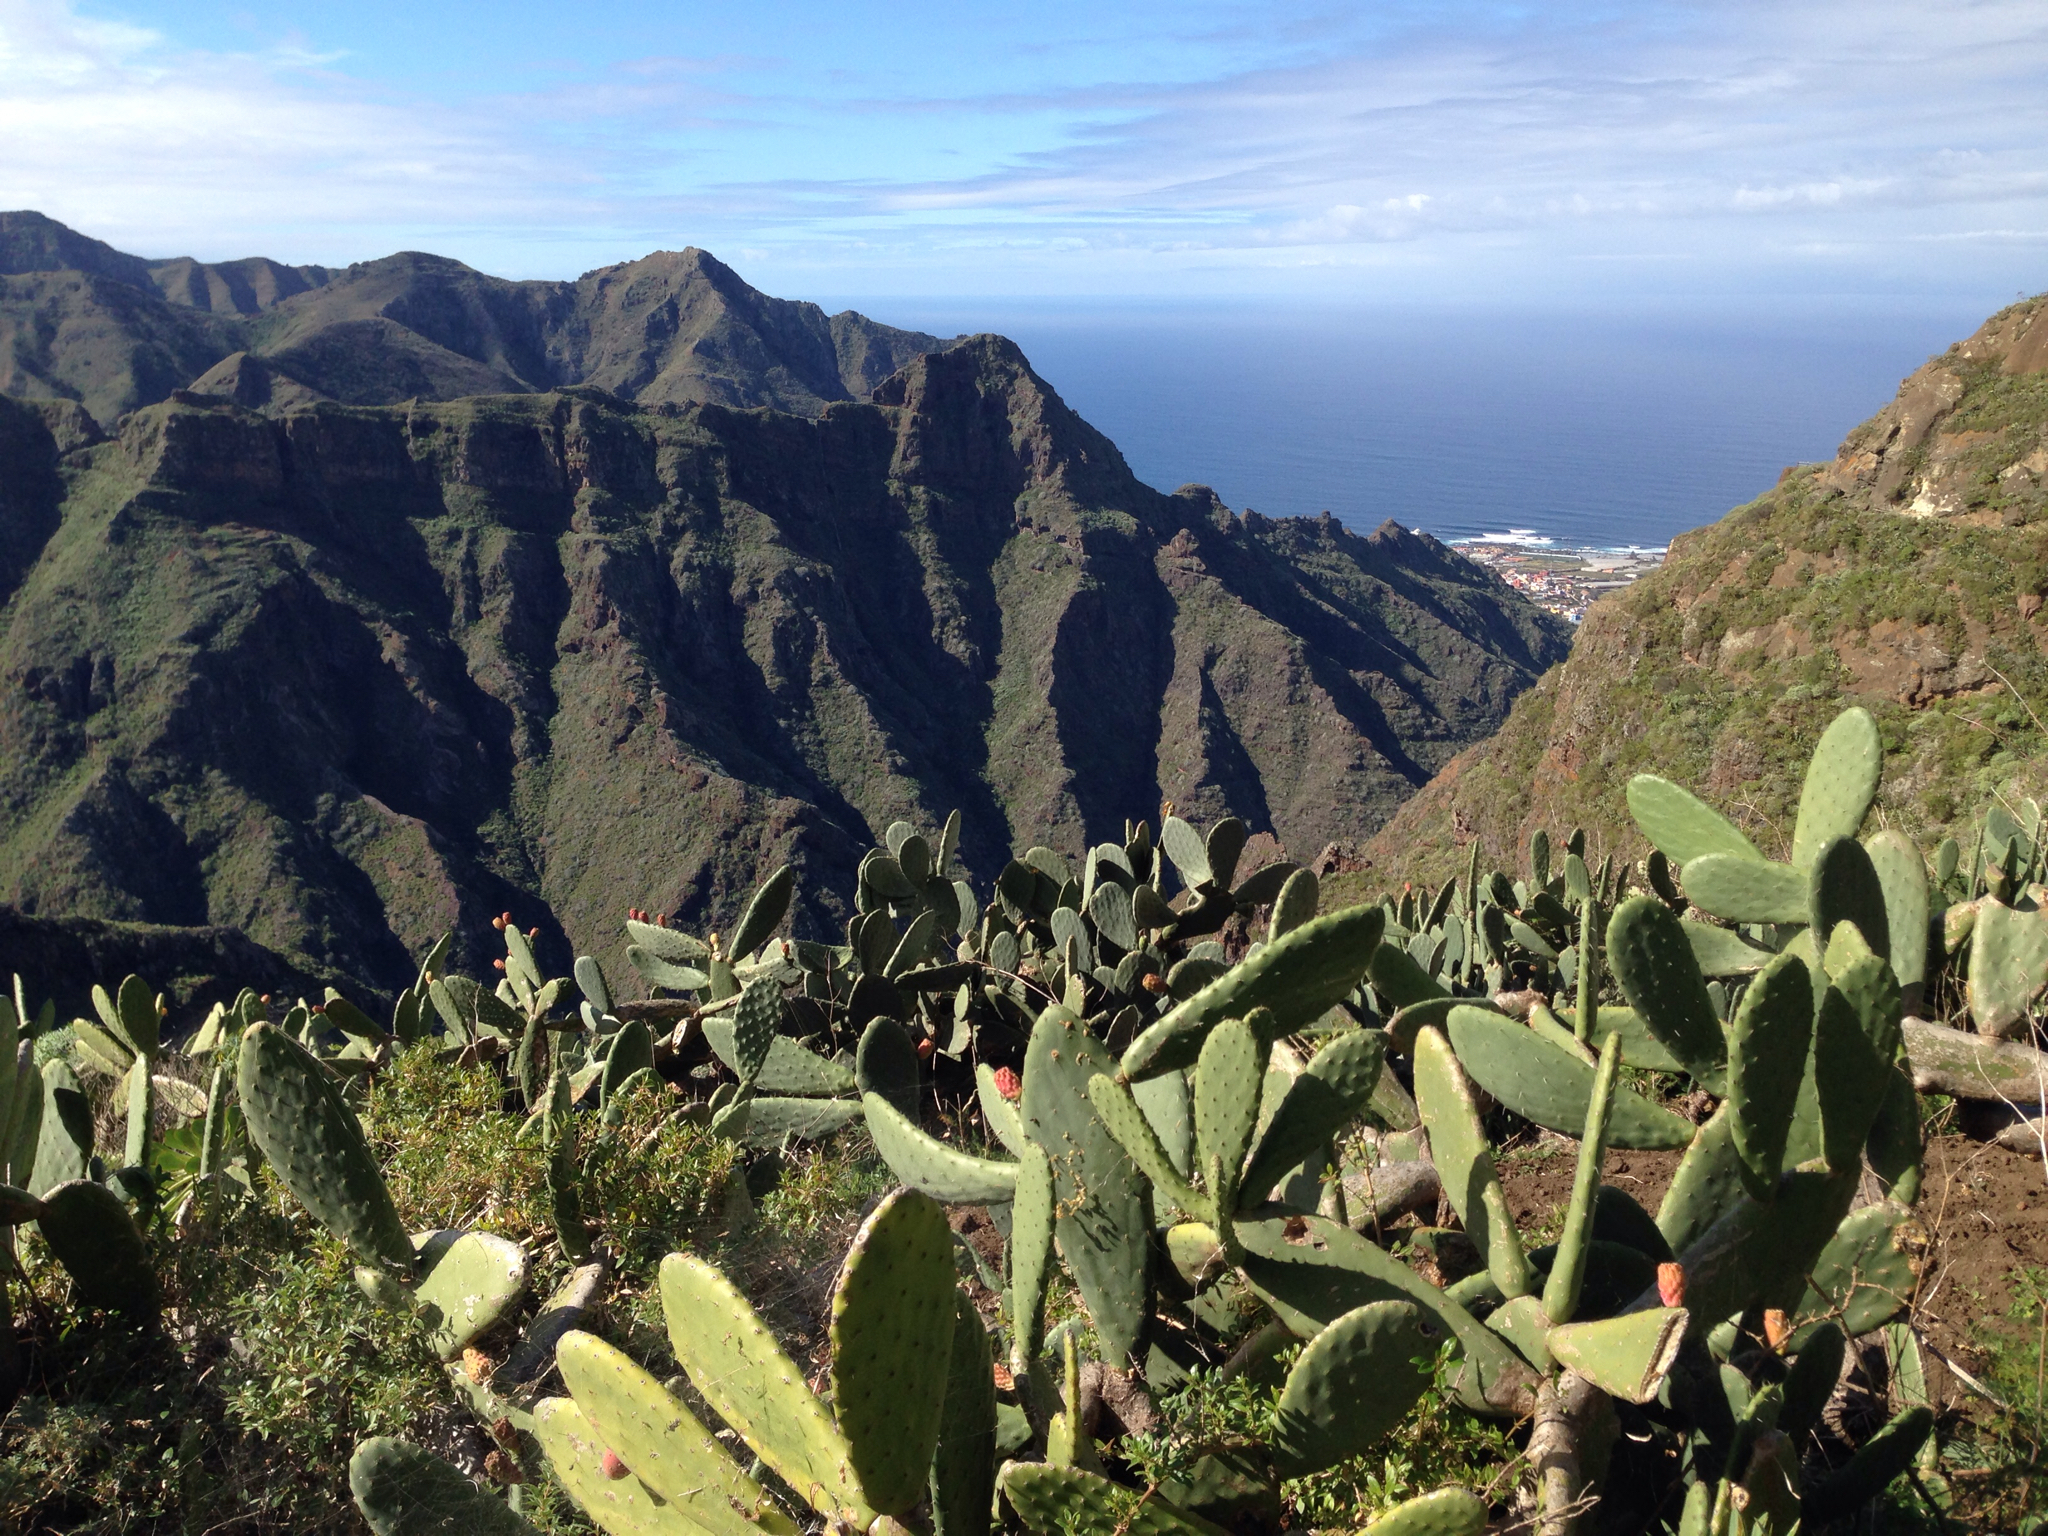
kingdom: Plantae
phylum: Tracheophyta
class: Magnoliopsida
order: Caryophyllales
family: Cactaceae
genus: Opuntia
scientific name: Opuntia ficus-indica
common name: Barbary fig
